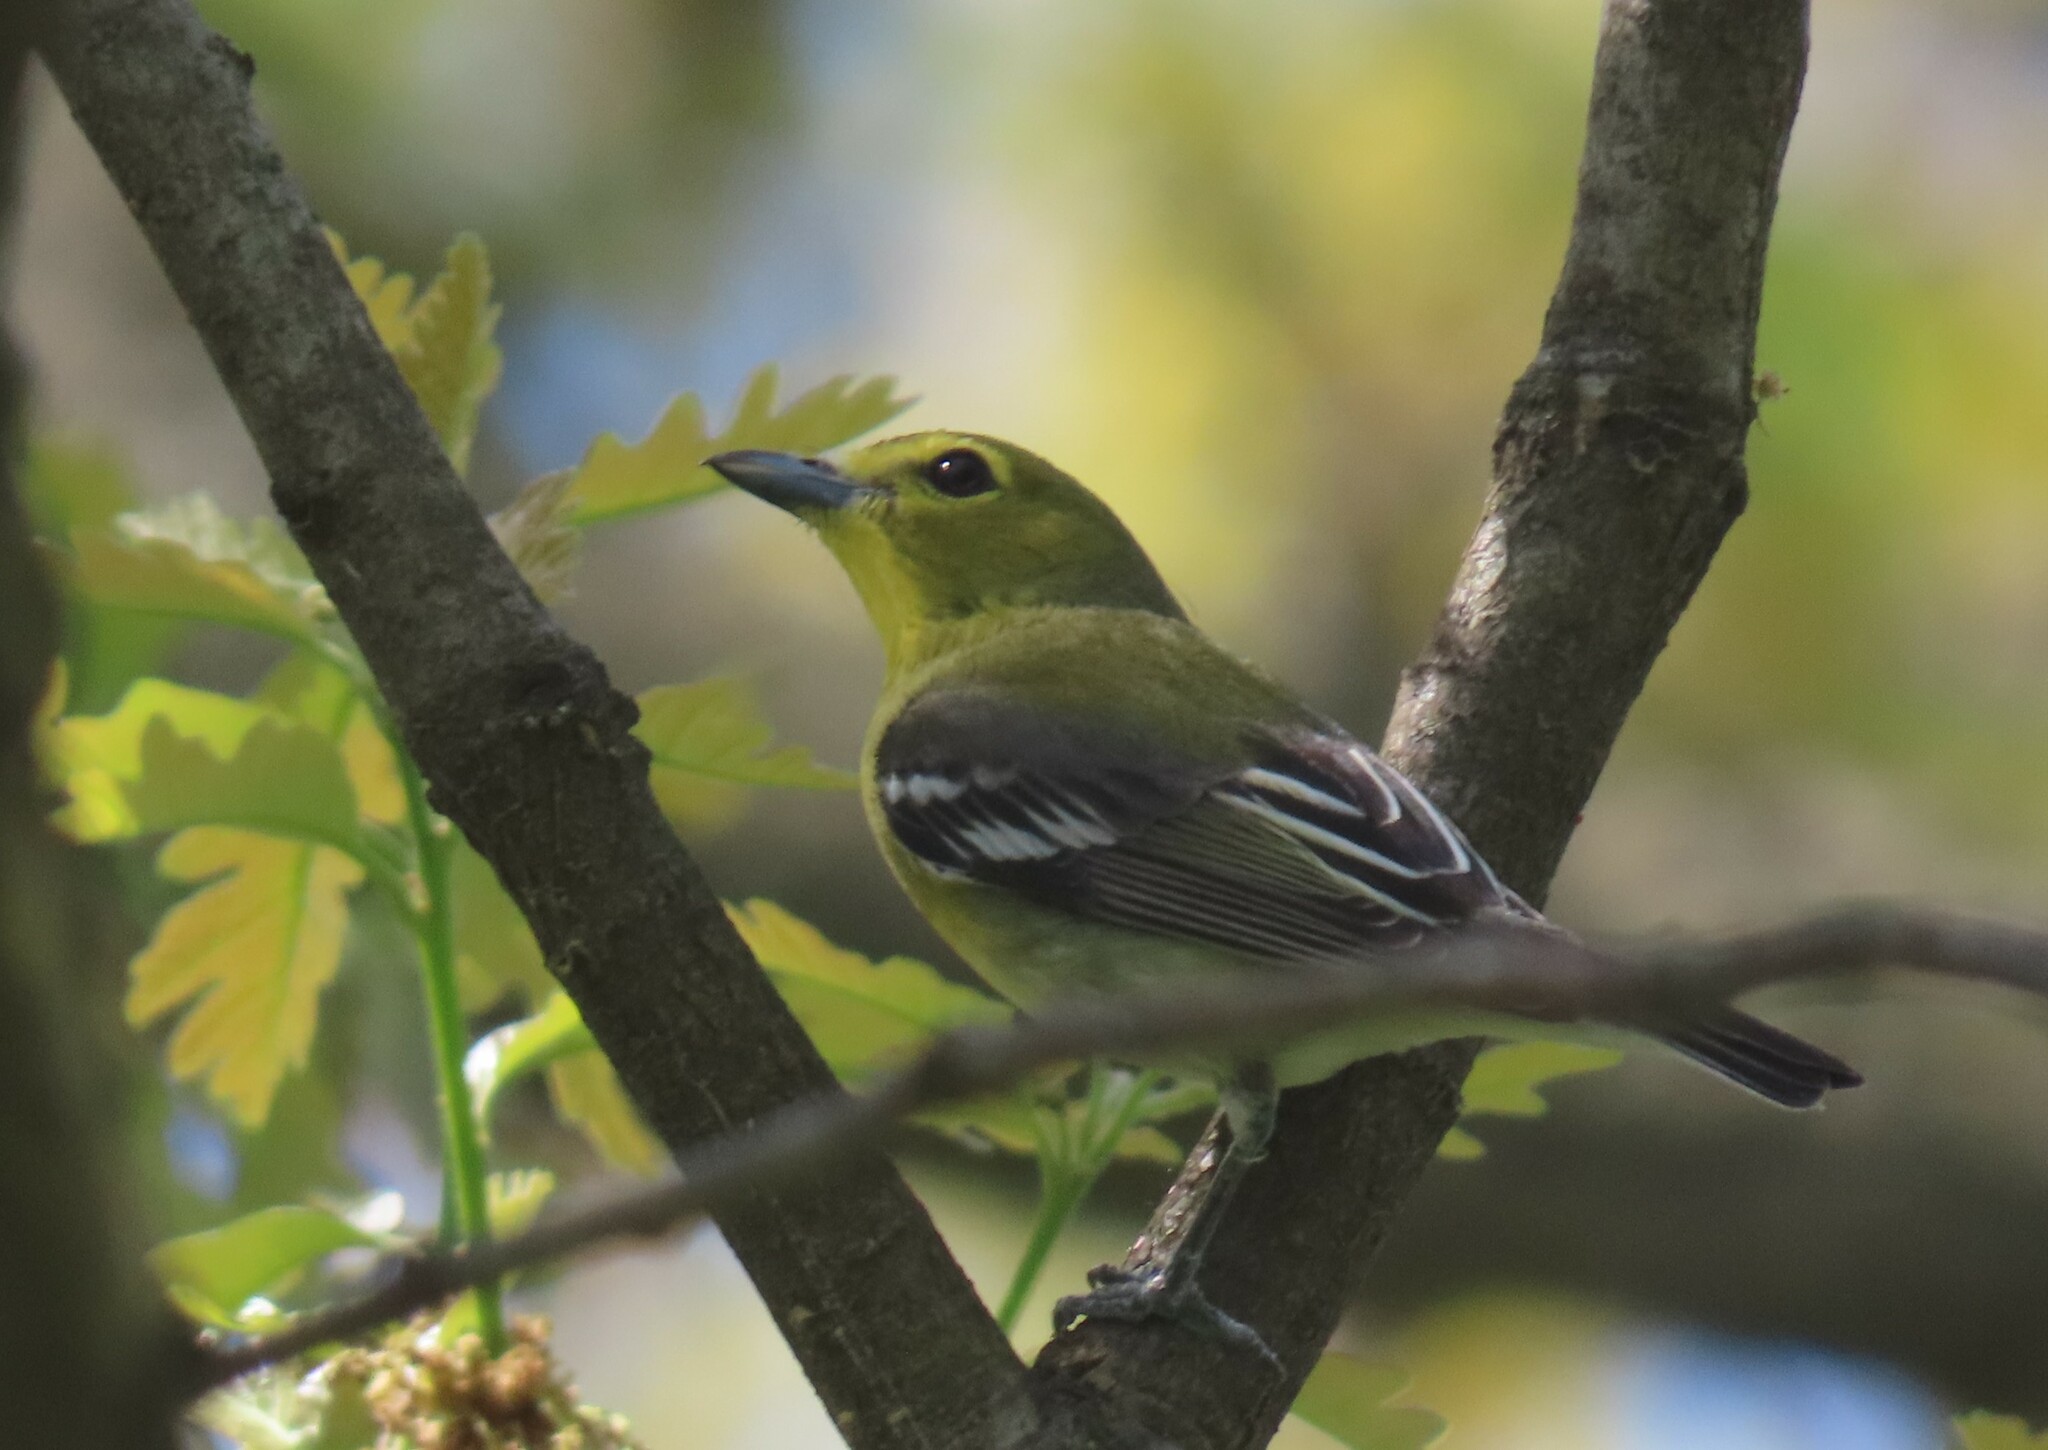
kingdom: Animalia
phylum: Chordata
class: Aves
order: Passeriformes
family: Vireonidae
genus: Vireo
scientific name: Vireo flavifrons
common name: Yellow-throated vireo
